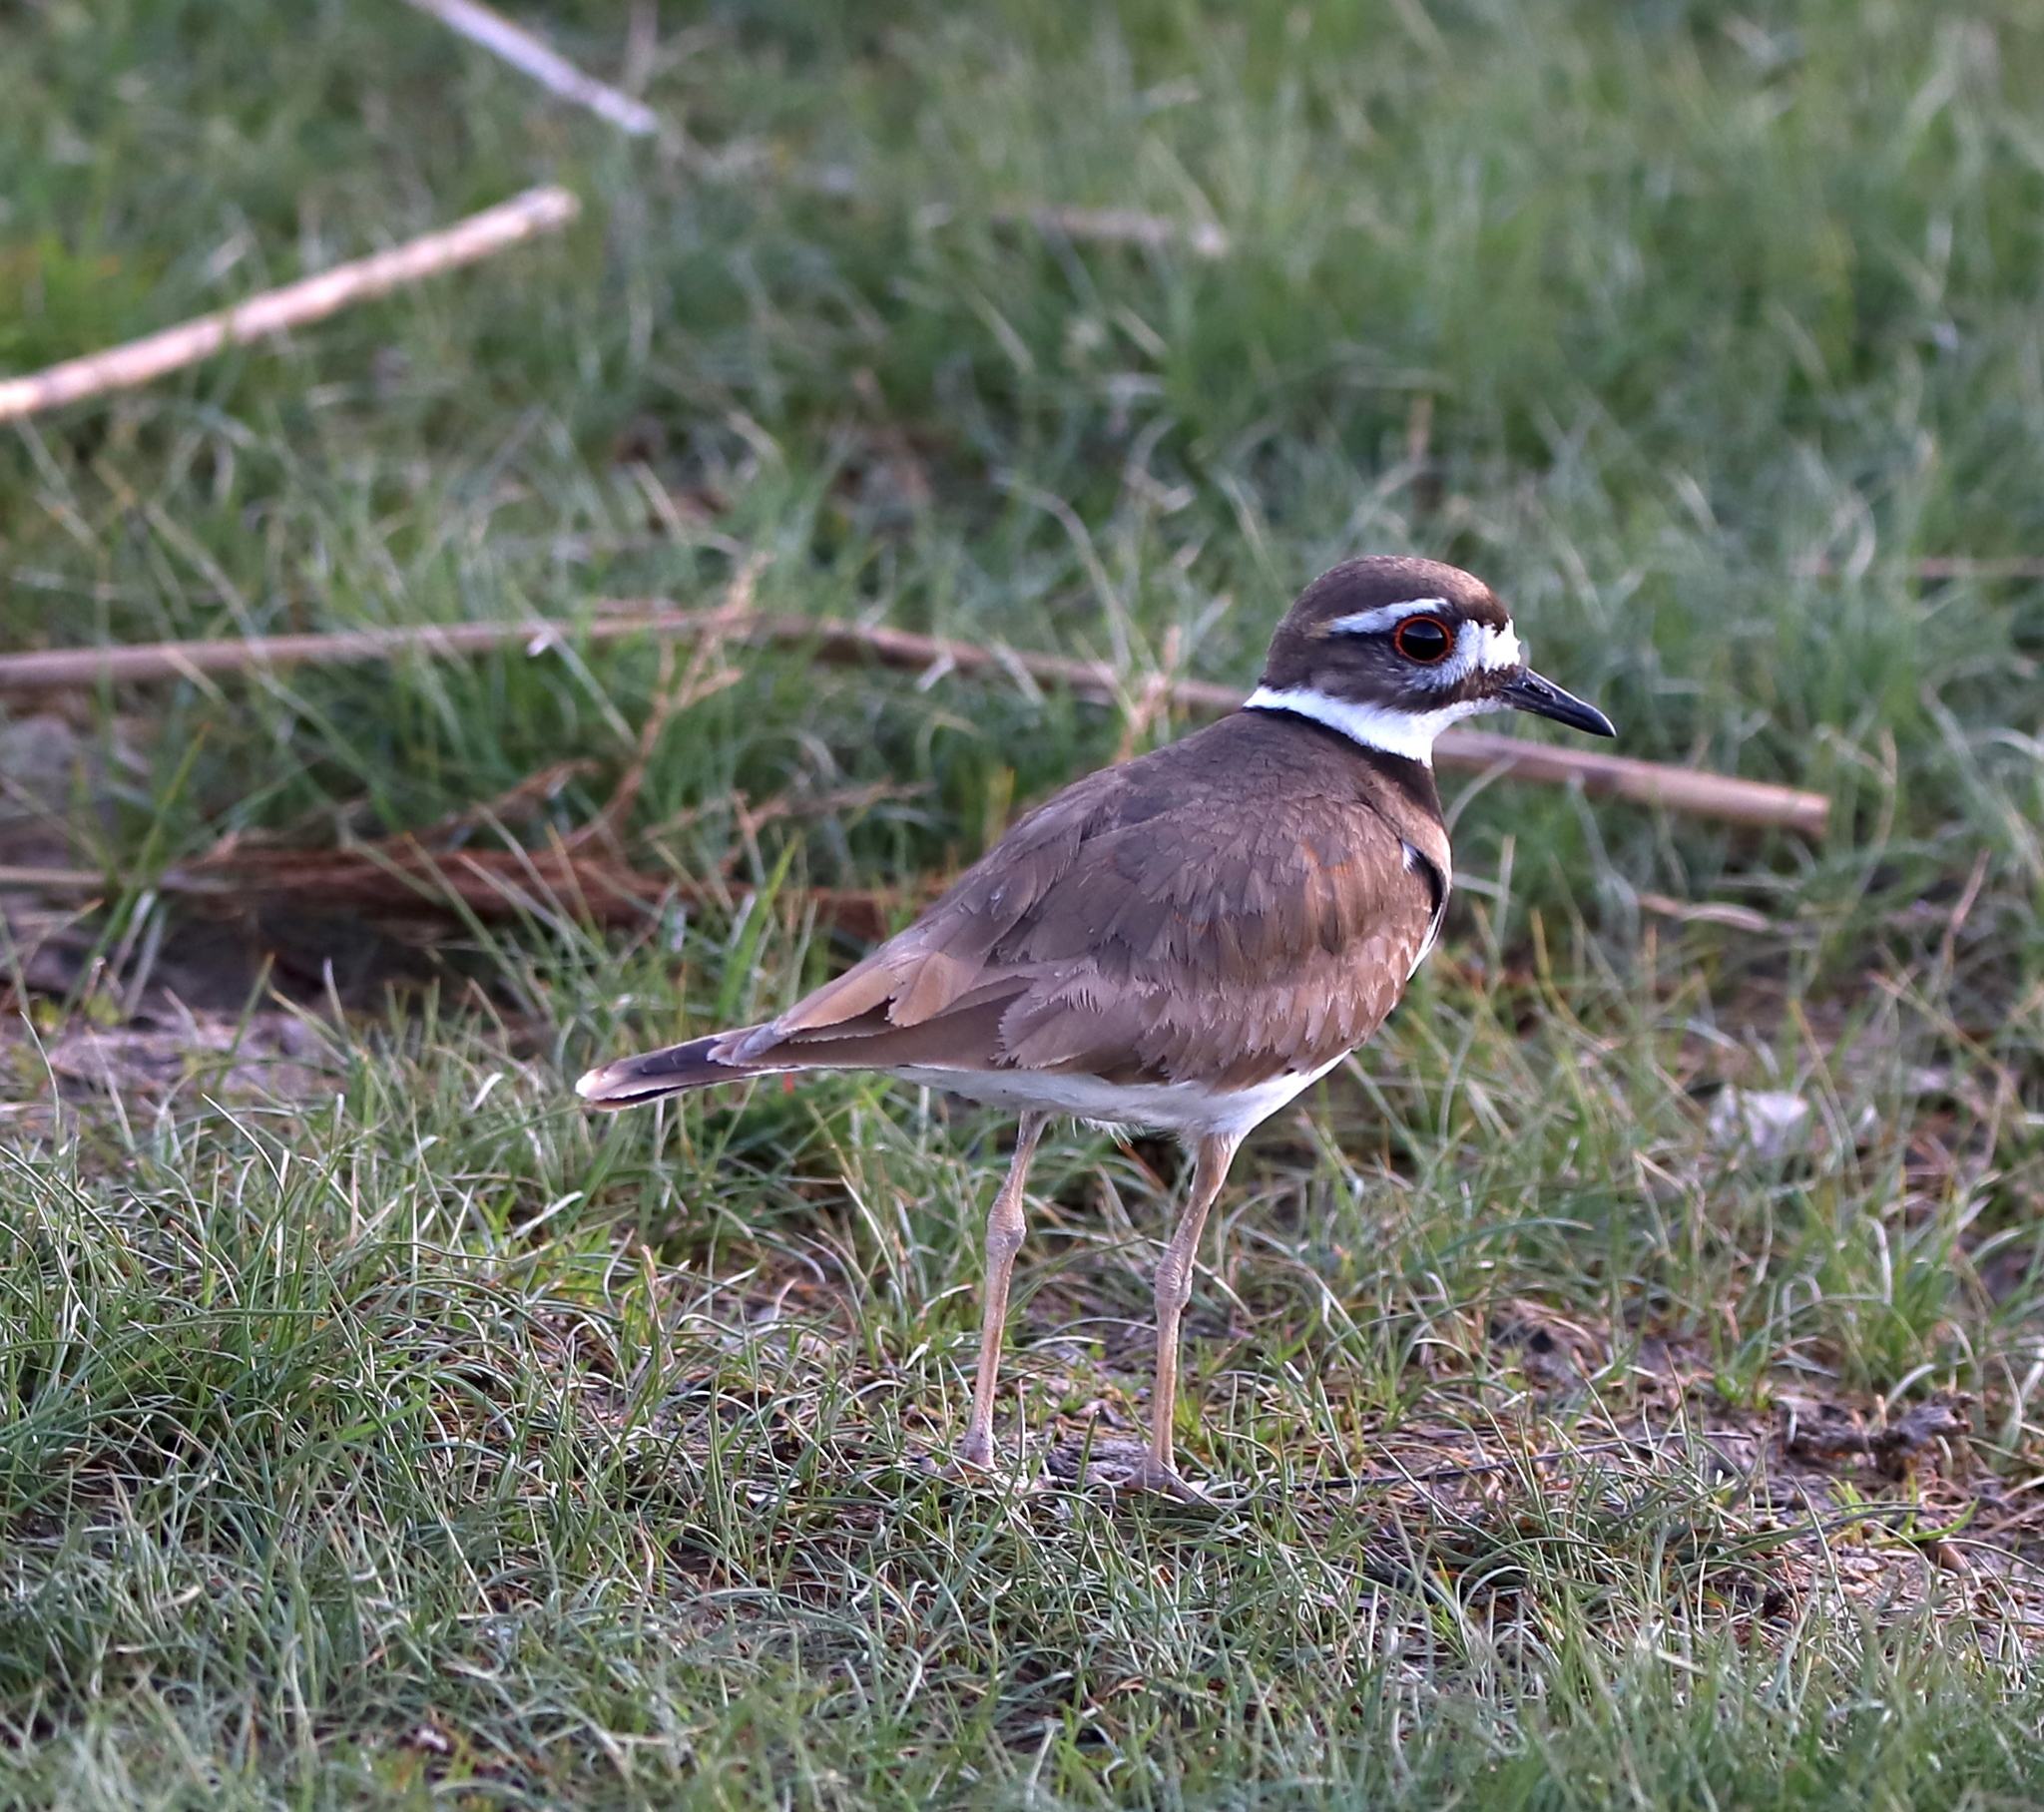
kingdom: Animalia
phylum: Chordata
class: Aves
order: Charadriiformes
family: Charadriidae
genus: Charadrius
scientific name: Charadrius vociferus
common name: Killdeer
